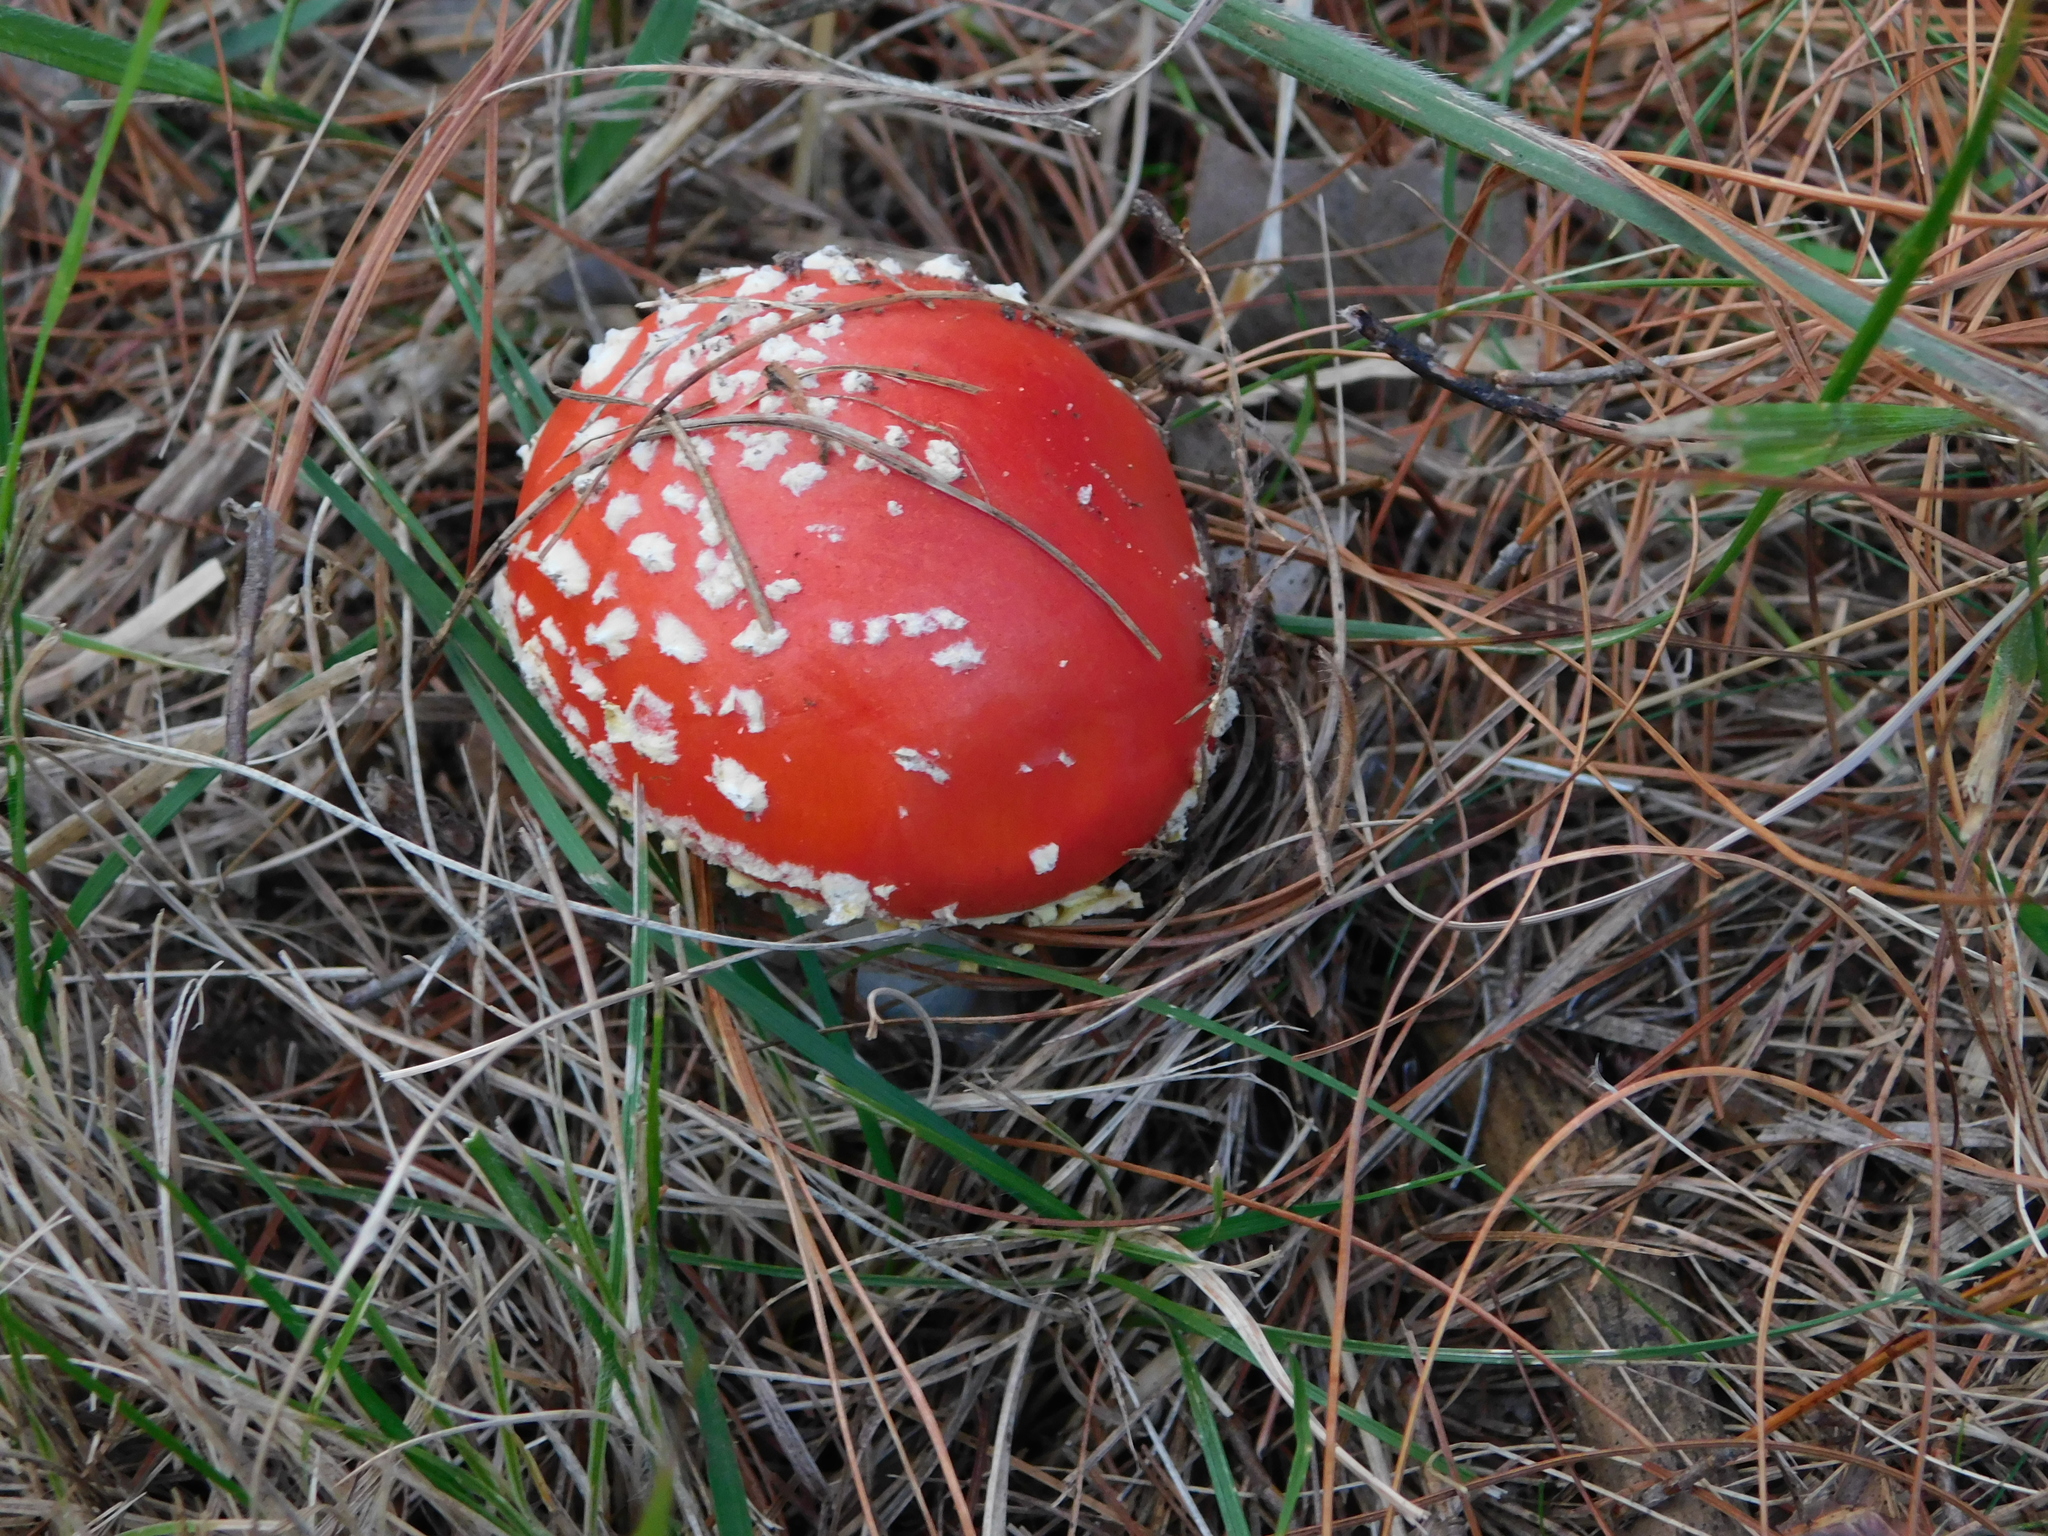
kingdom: Fungi
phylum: Basidiomycota
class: Agaricomycetes
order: Agaricales
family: Amanitaceae
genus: Amanita
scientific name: Amanita muscaria
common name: Fly agaric
